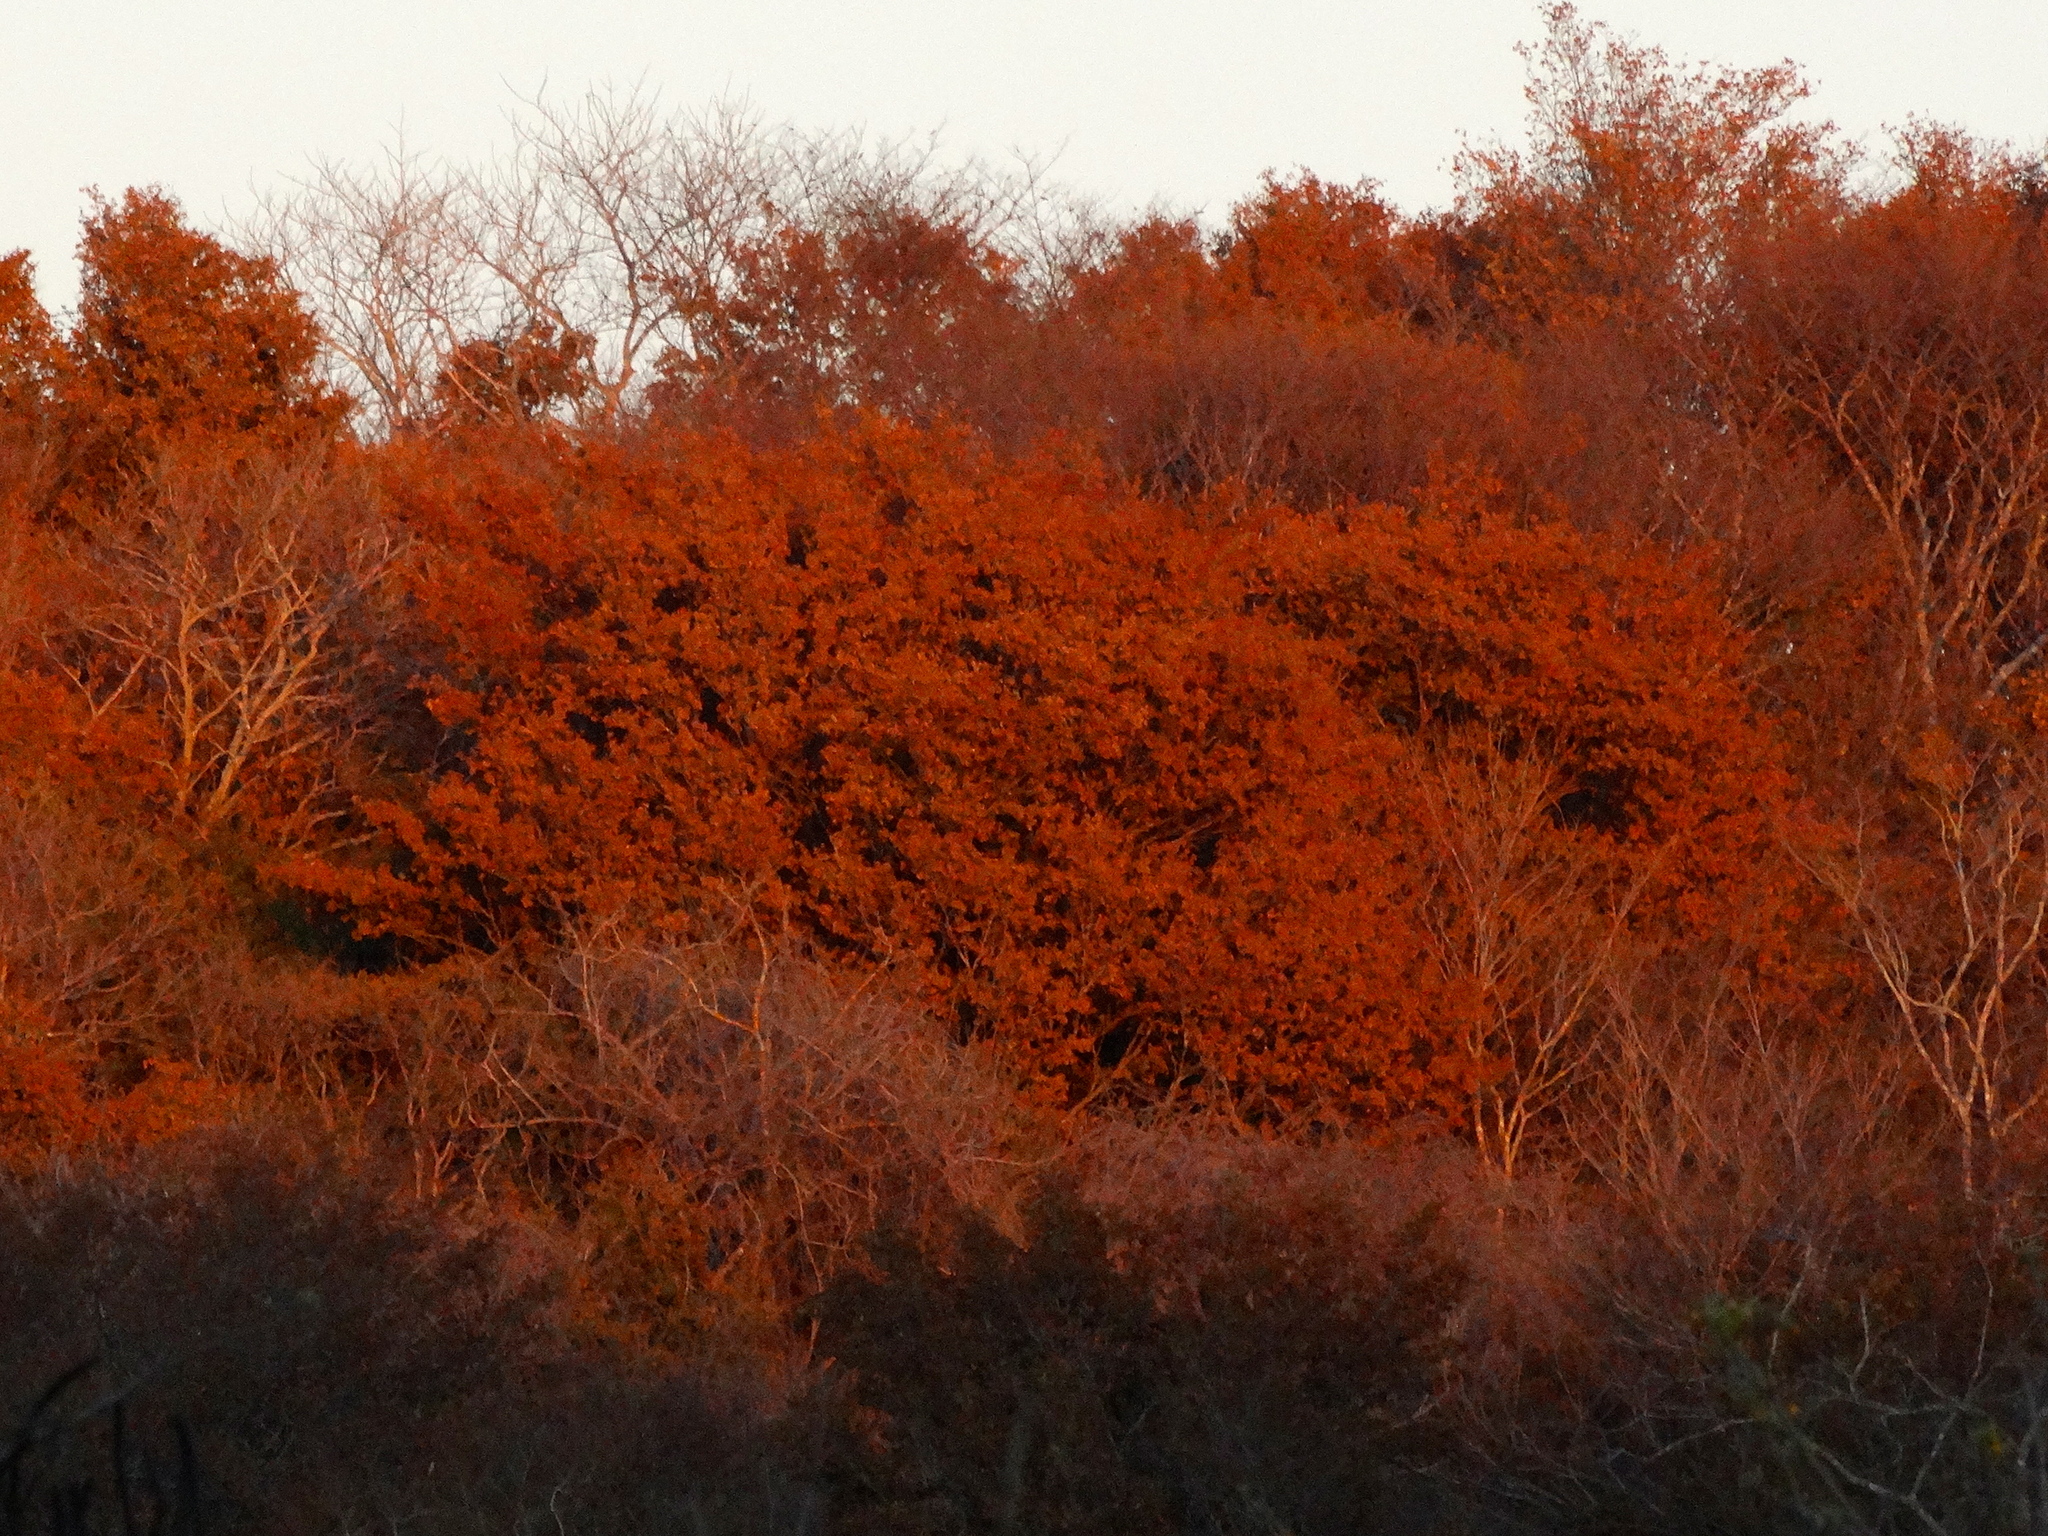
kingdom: Plantae
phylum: Tracheophyta
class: Magnoliopsida
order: Malpighiales
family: Picrodendraceae
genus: Piranhea
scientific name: Piranhea mexicana
